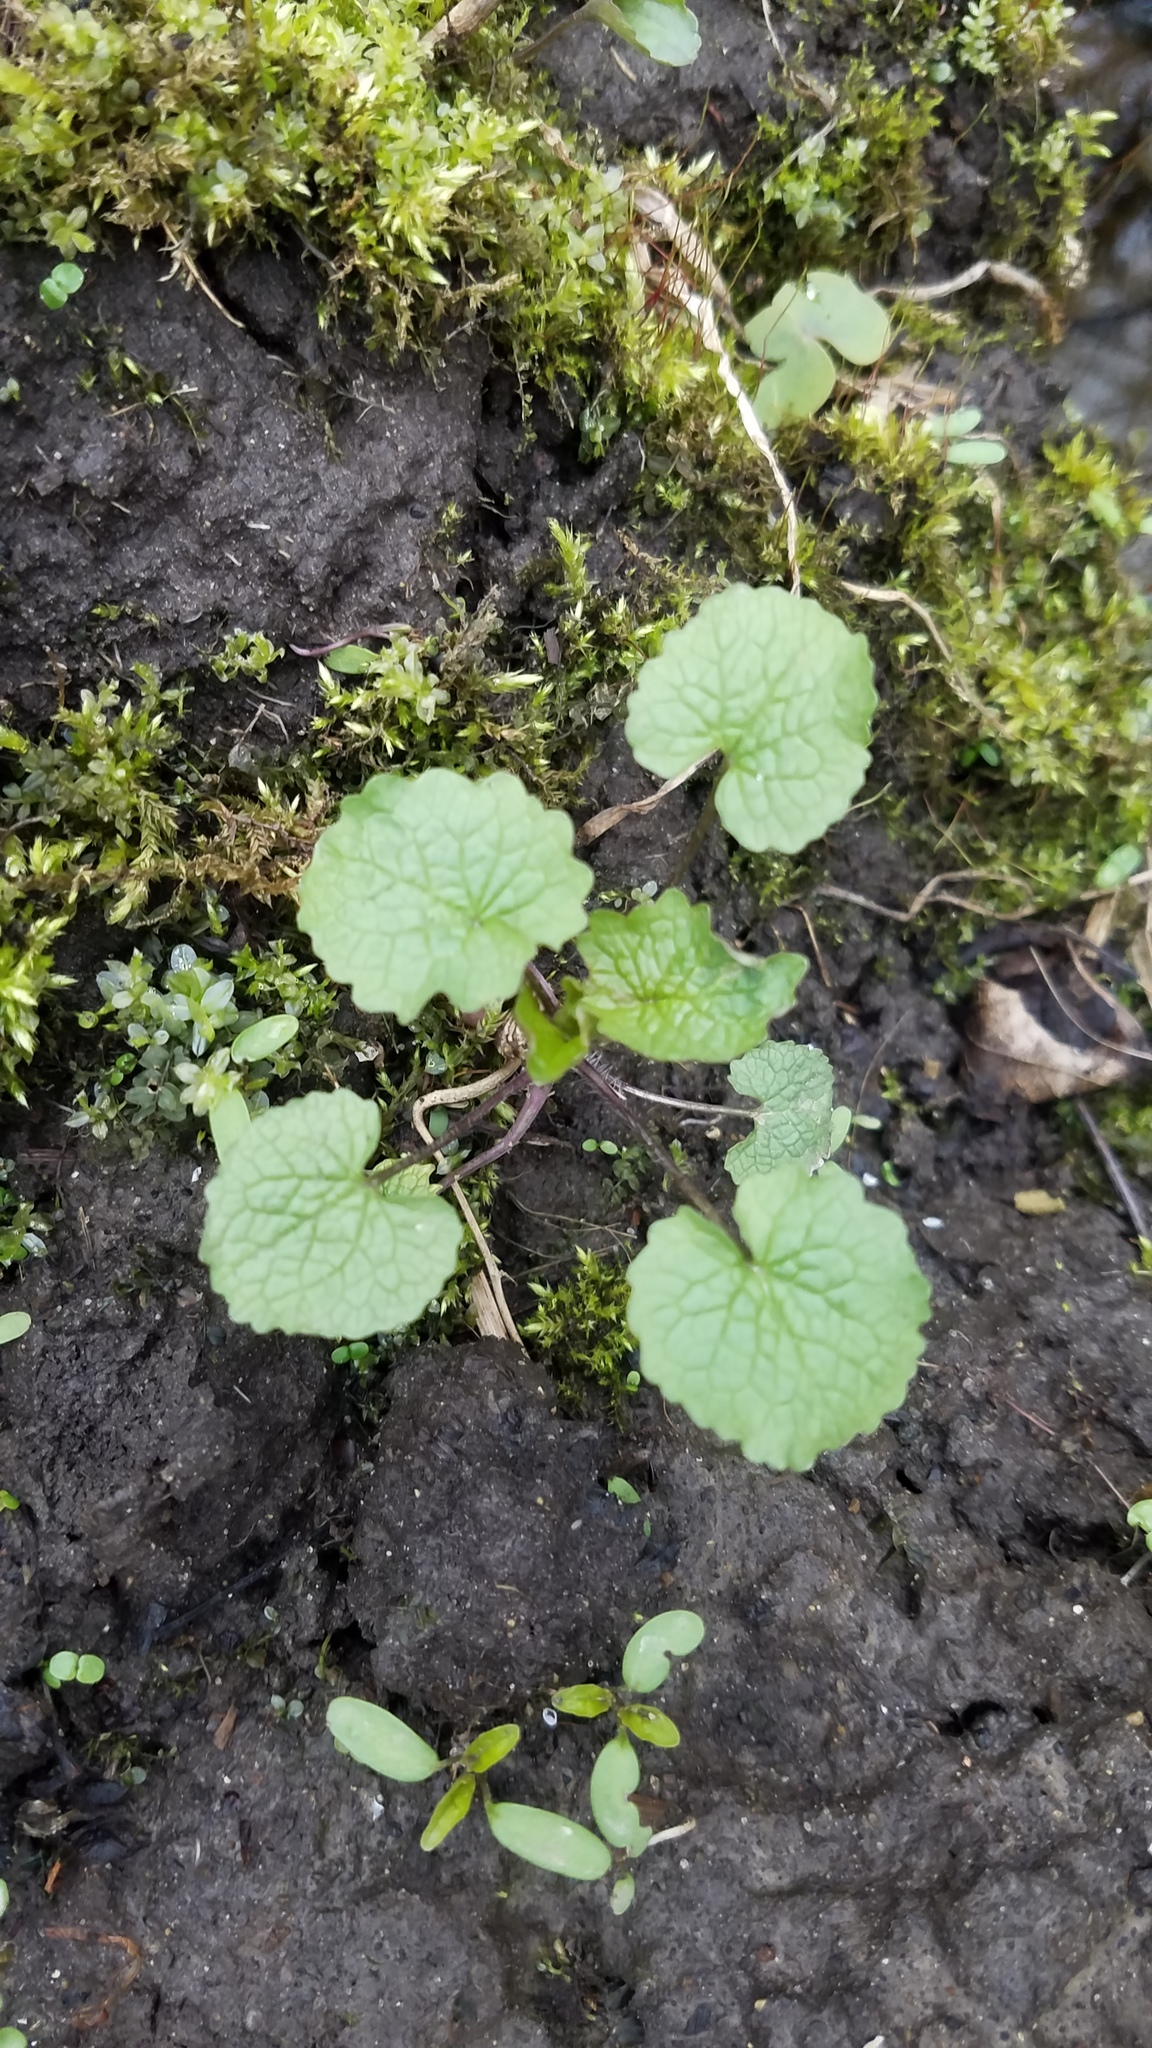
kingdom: Plantae
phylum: Tracheophyta
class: Magnoliopsida
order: Brassicales
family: Brassicaceae
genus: Alliaria
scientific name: Alliaria petiolata
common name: Garlic mustard
